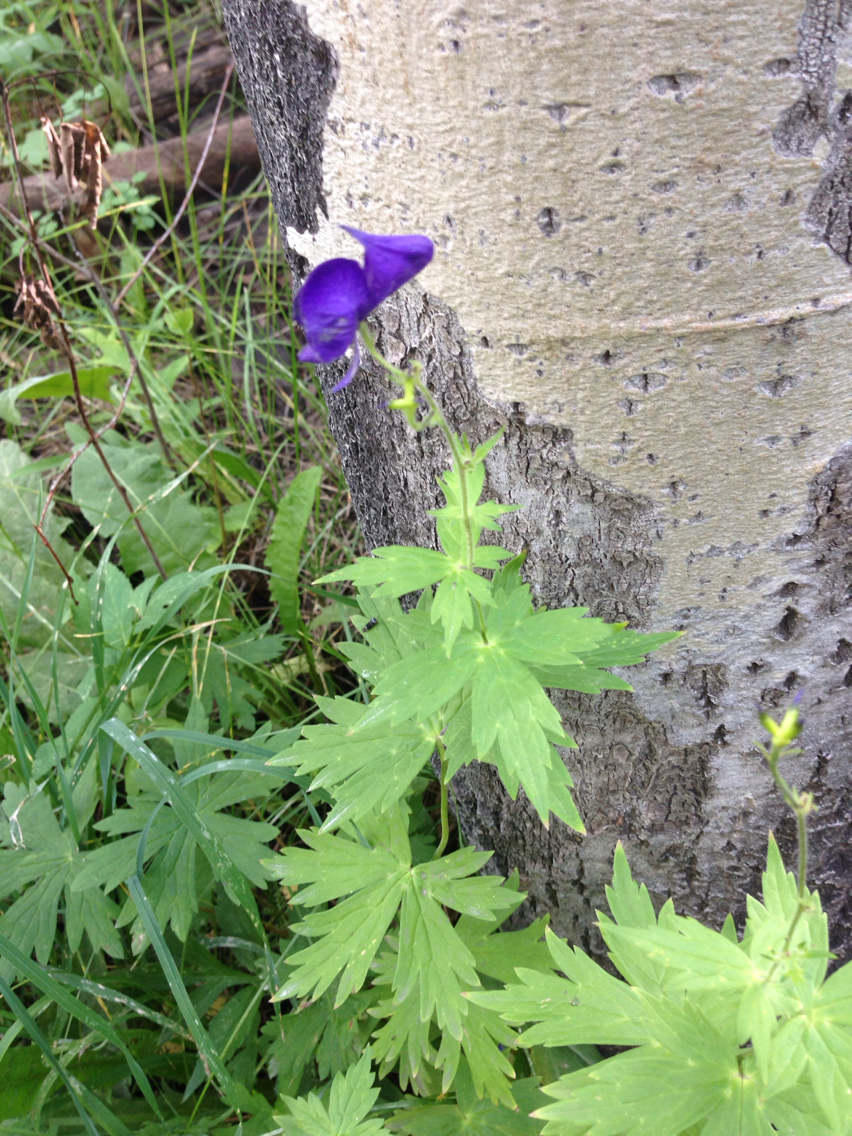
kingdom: Plantae
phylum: Tracheophyta
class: Magnoliopsida
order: Ranunculales
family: Ranunculaceae
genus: Aconitum
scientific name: Aconitum columbianum
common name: Columbia aconite
